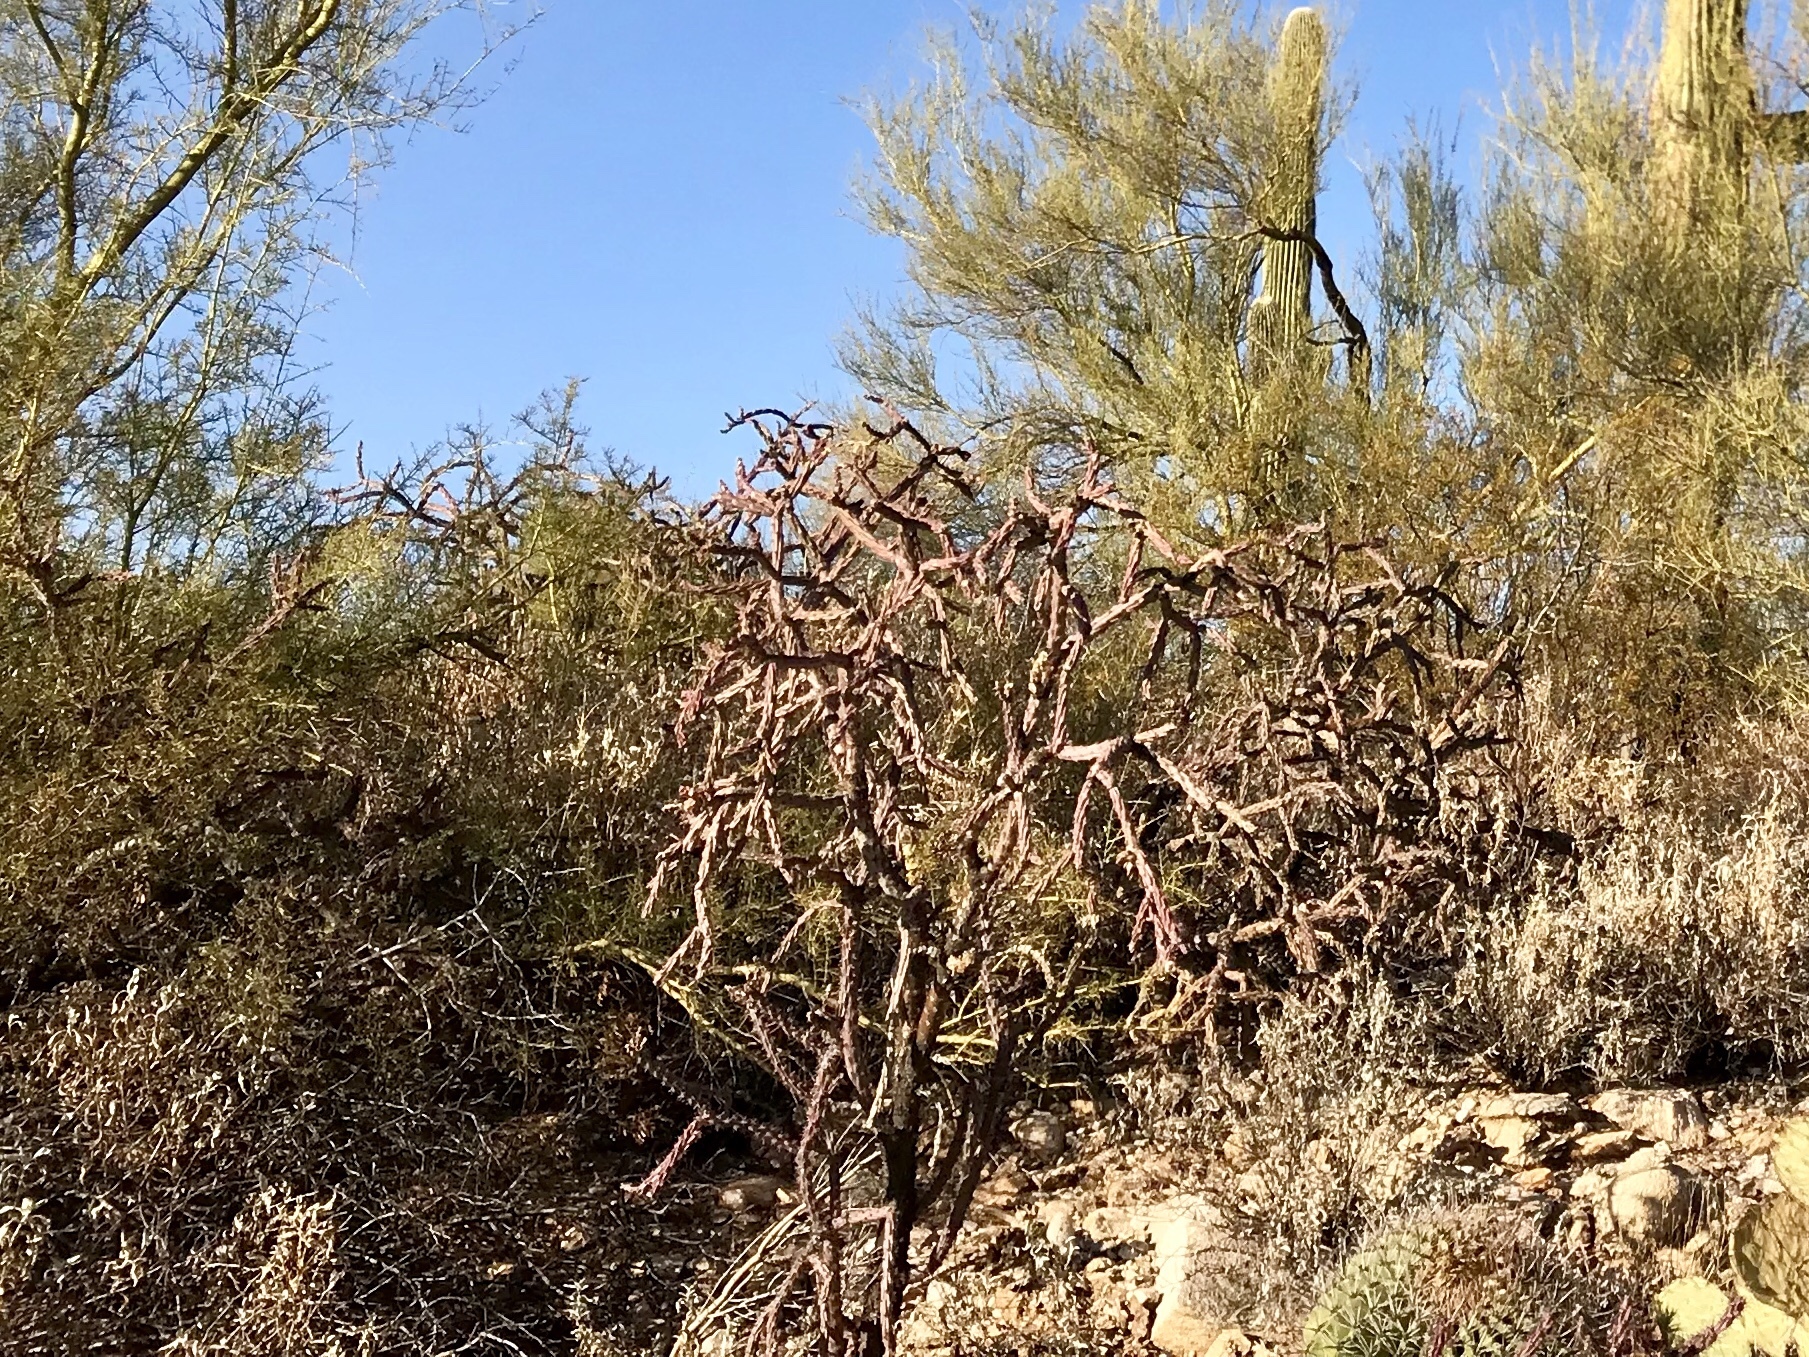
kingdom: Plantae
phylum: Tracheophyta
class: Magnoliopsida
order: Caryophyllales
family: Cactaceae
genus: Cylindropuntia
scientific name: Cylindropuntia thurberi
